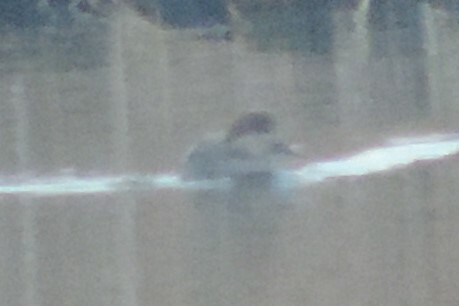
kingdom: Animalia
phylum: Chordata
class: Aves
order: Anseriformes
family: Anatidae
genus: Mareca
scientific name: Mareca strepera
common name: Gadwall
